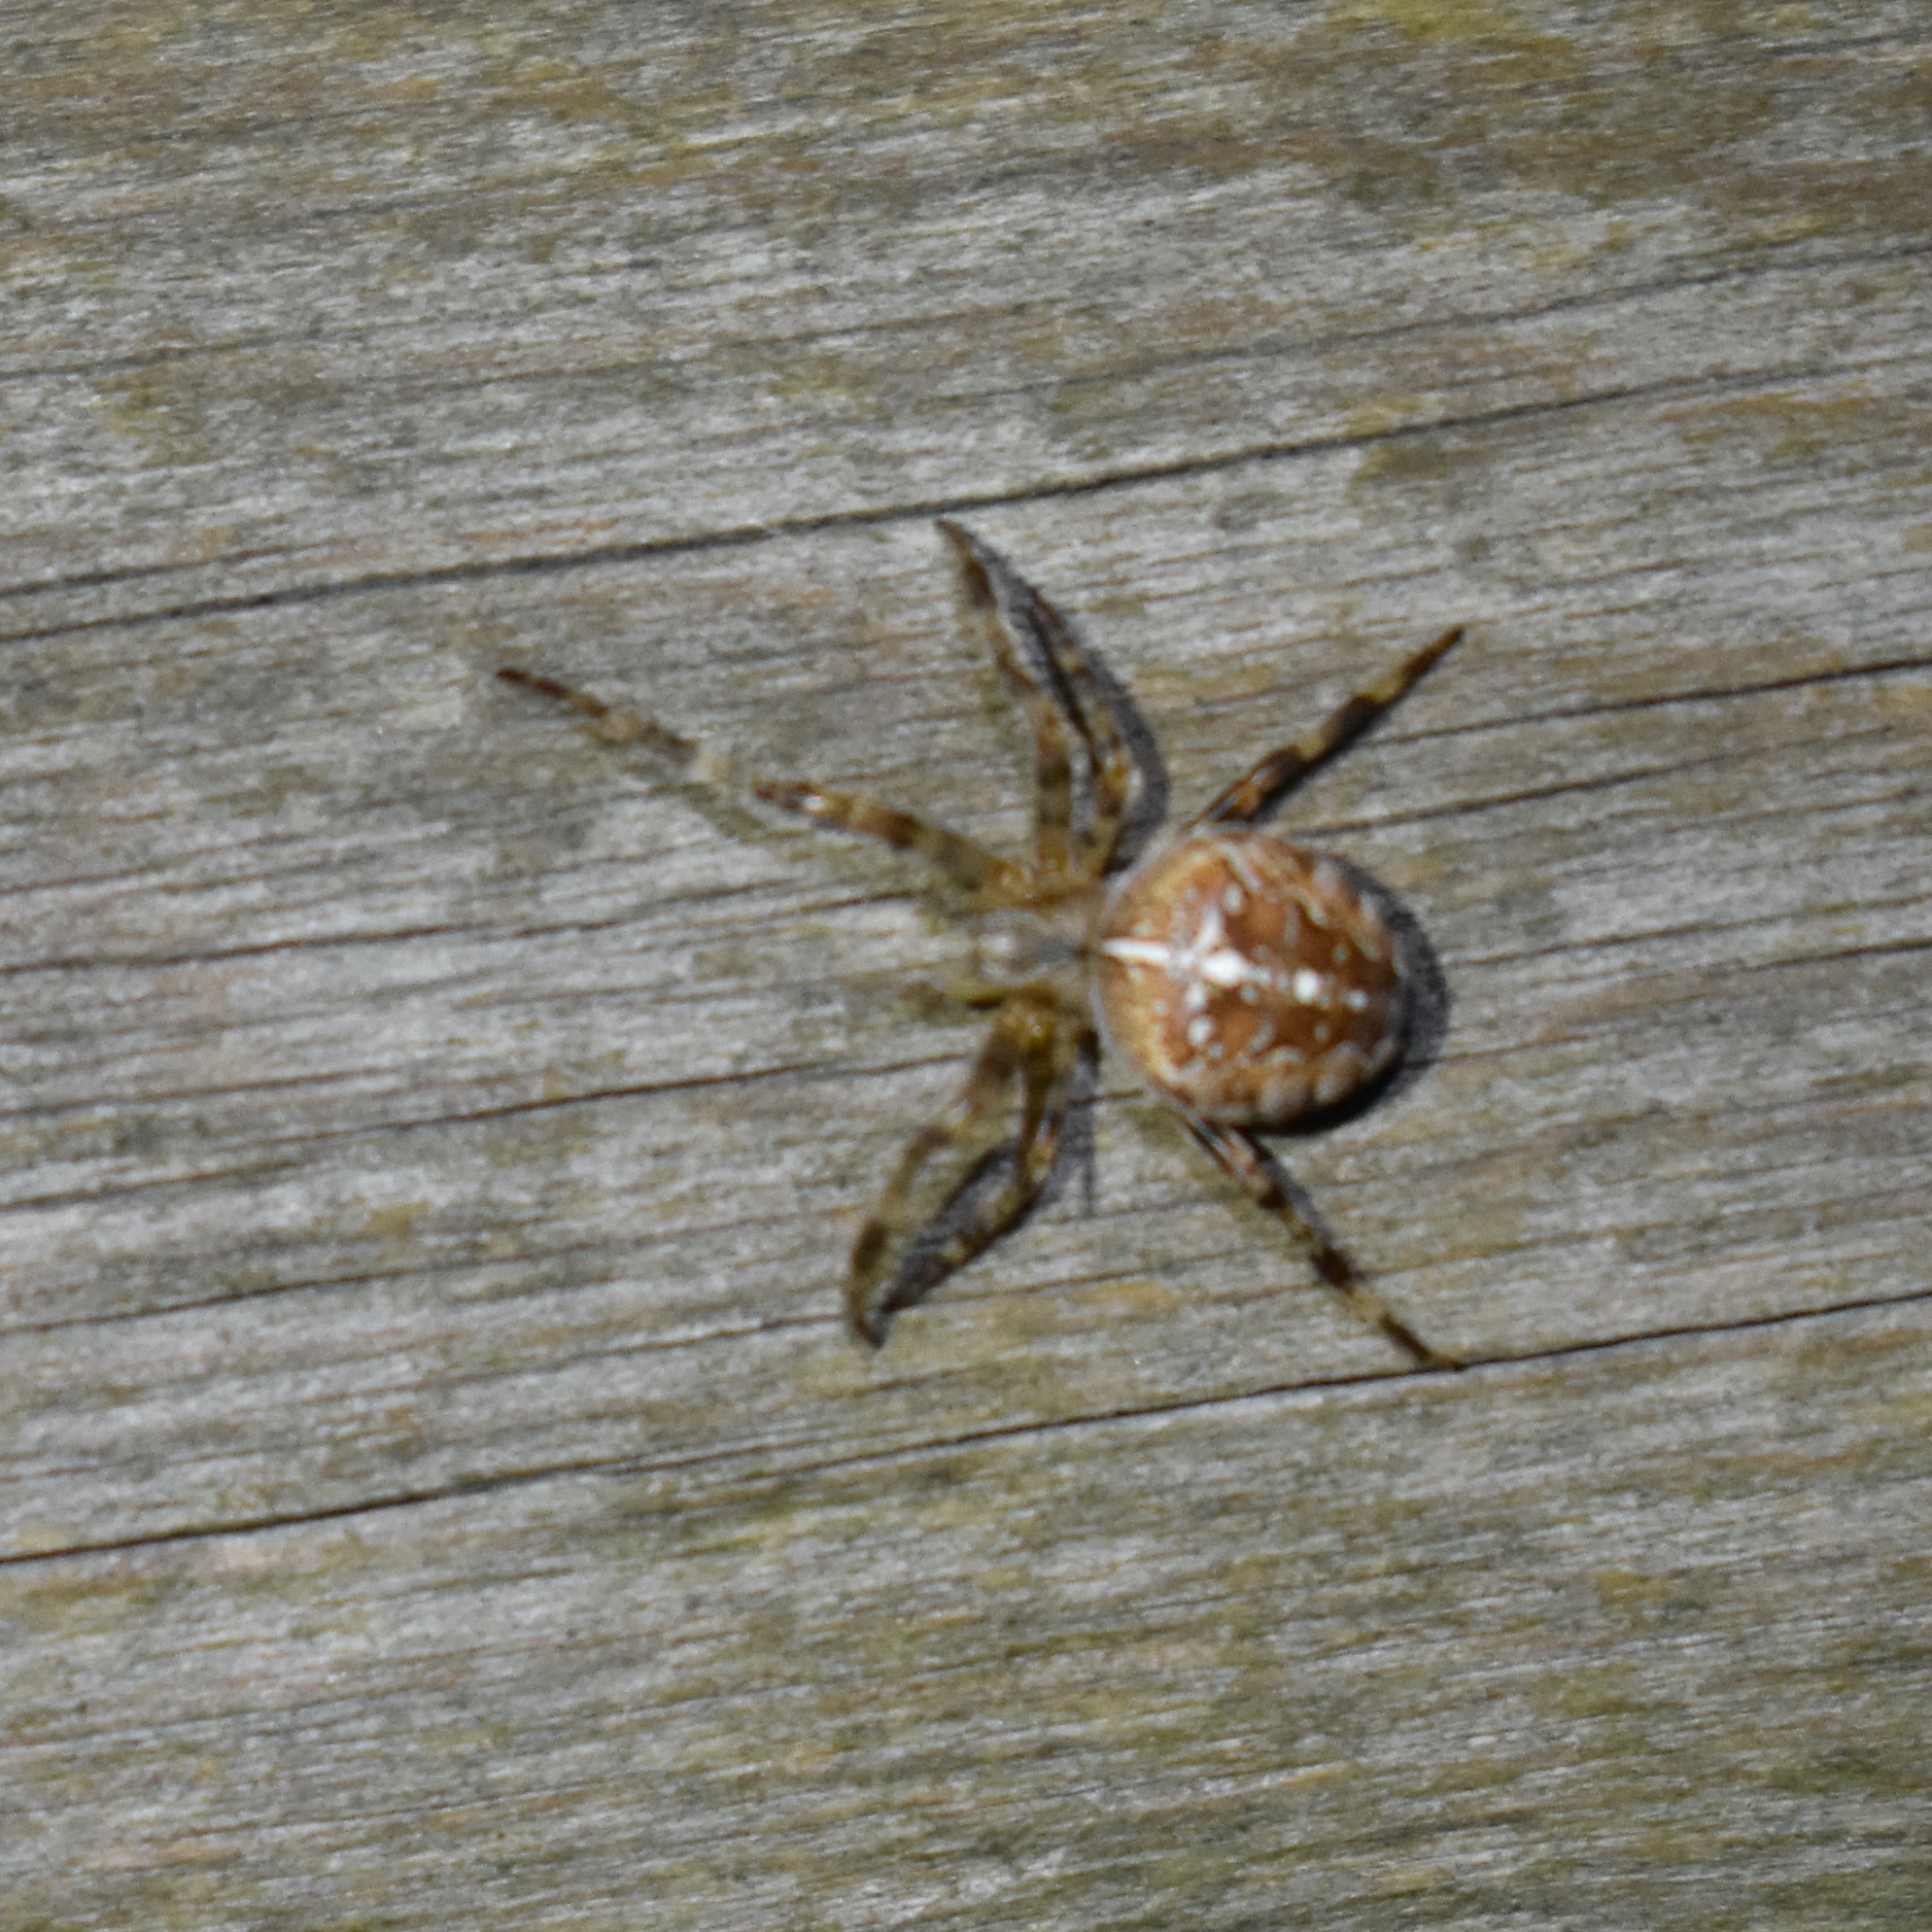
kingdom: Animalia
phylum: Arthropoda
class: Arachnida
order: Araneae
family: Araneidae
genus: Araneus
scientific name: Araneus diadematus
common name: Cross orbweaver
